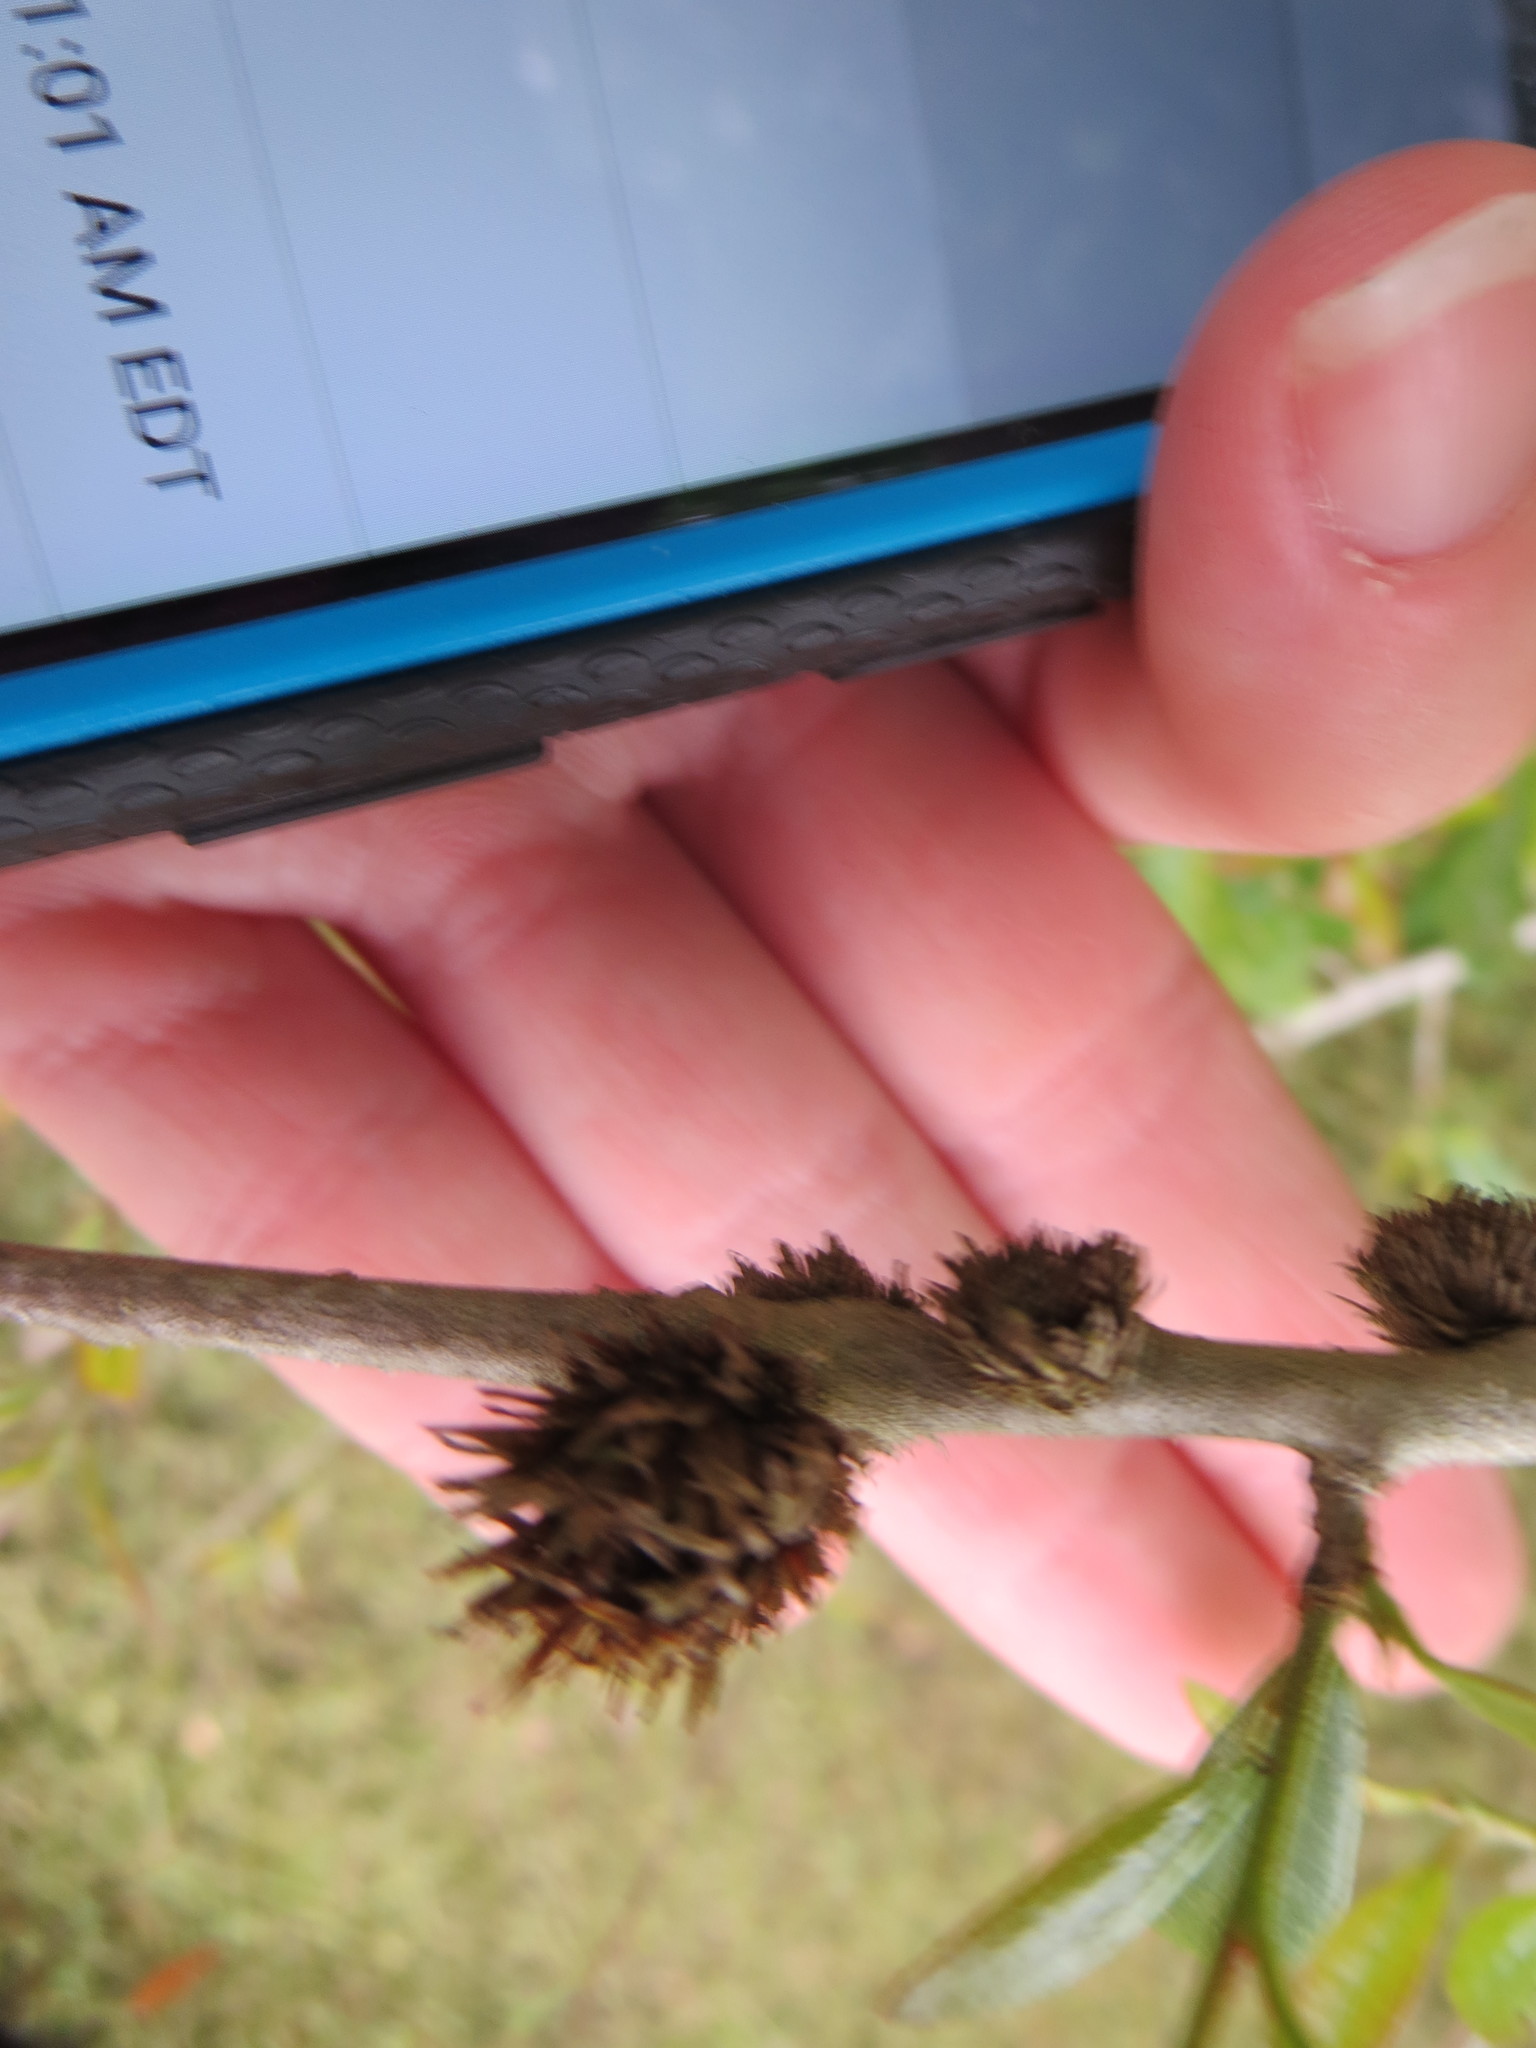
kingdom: Animalia
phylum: Arthropoda
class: Insecta
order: Hymenoptera
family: Cynipidae
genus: Andricus
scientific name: Andricus quercusfoliatus
